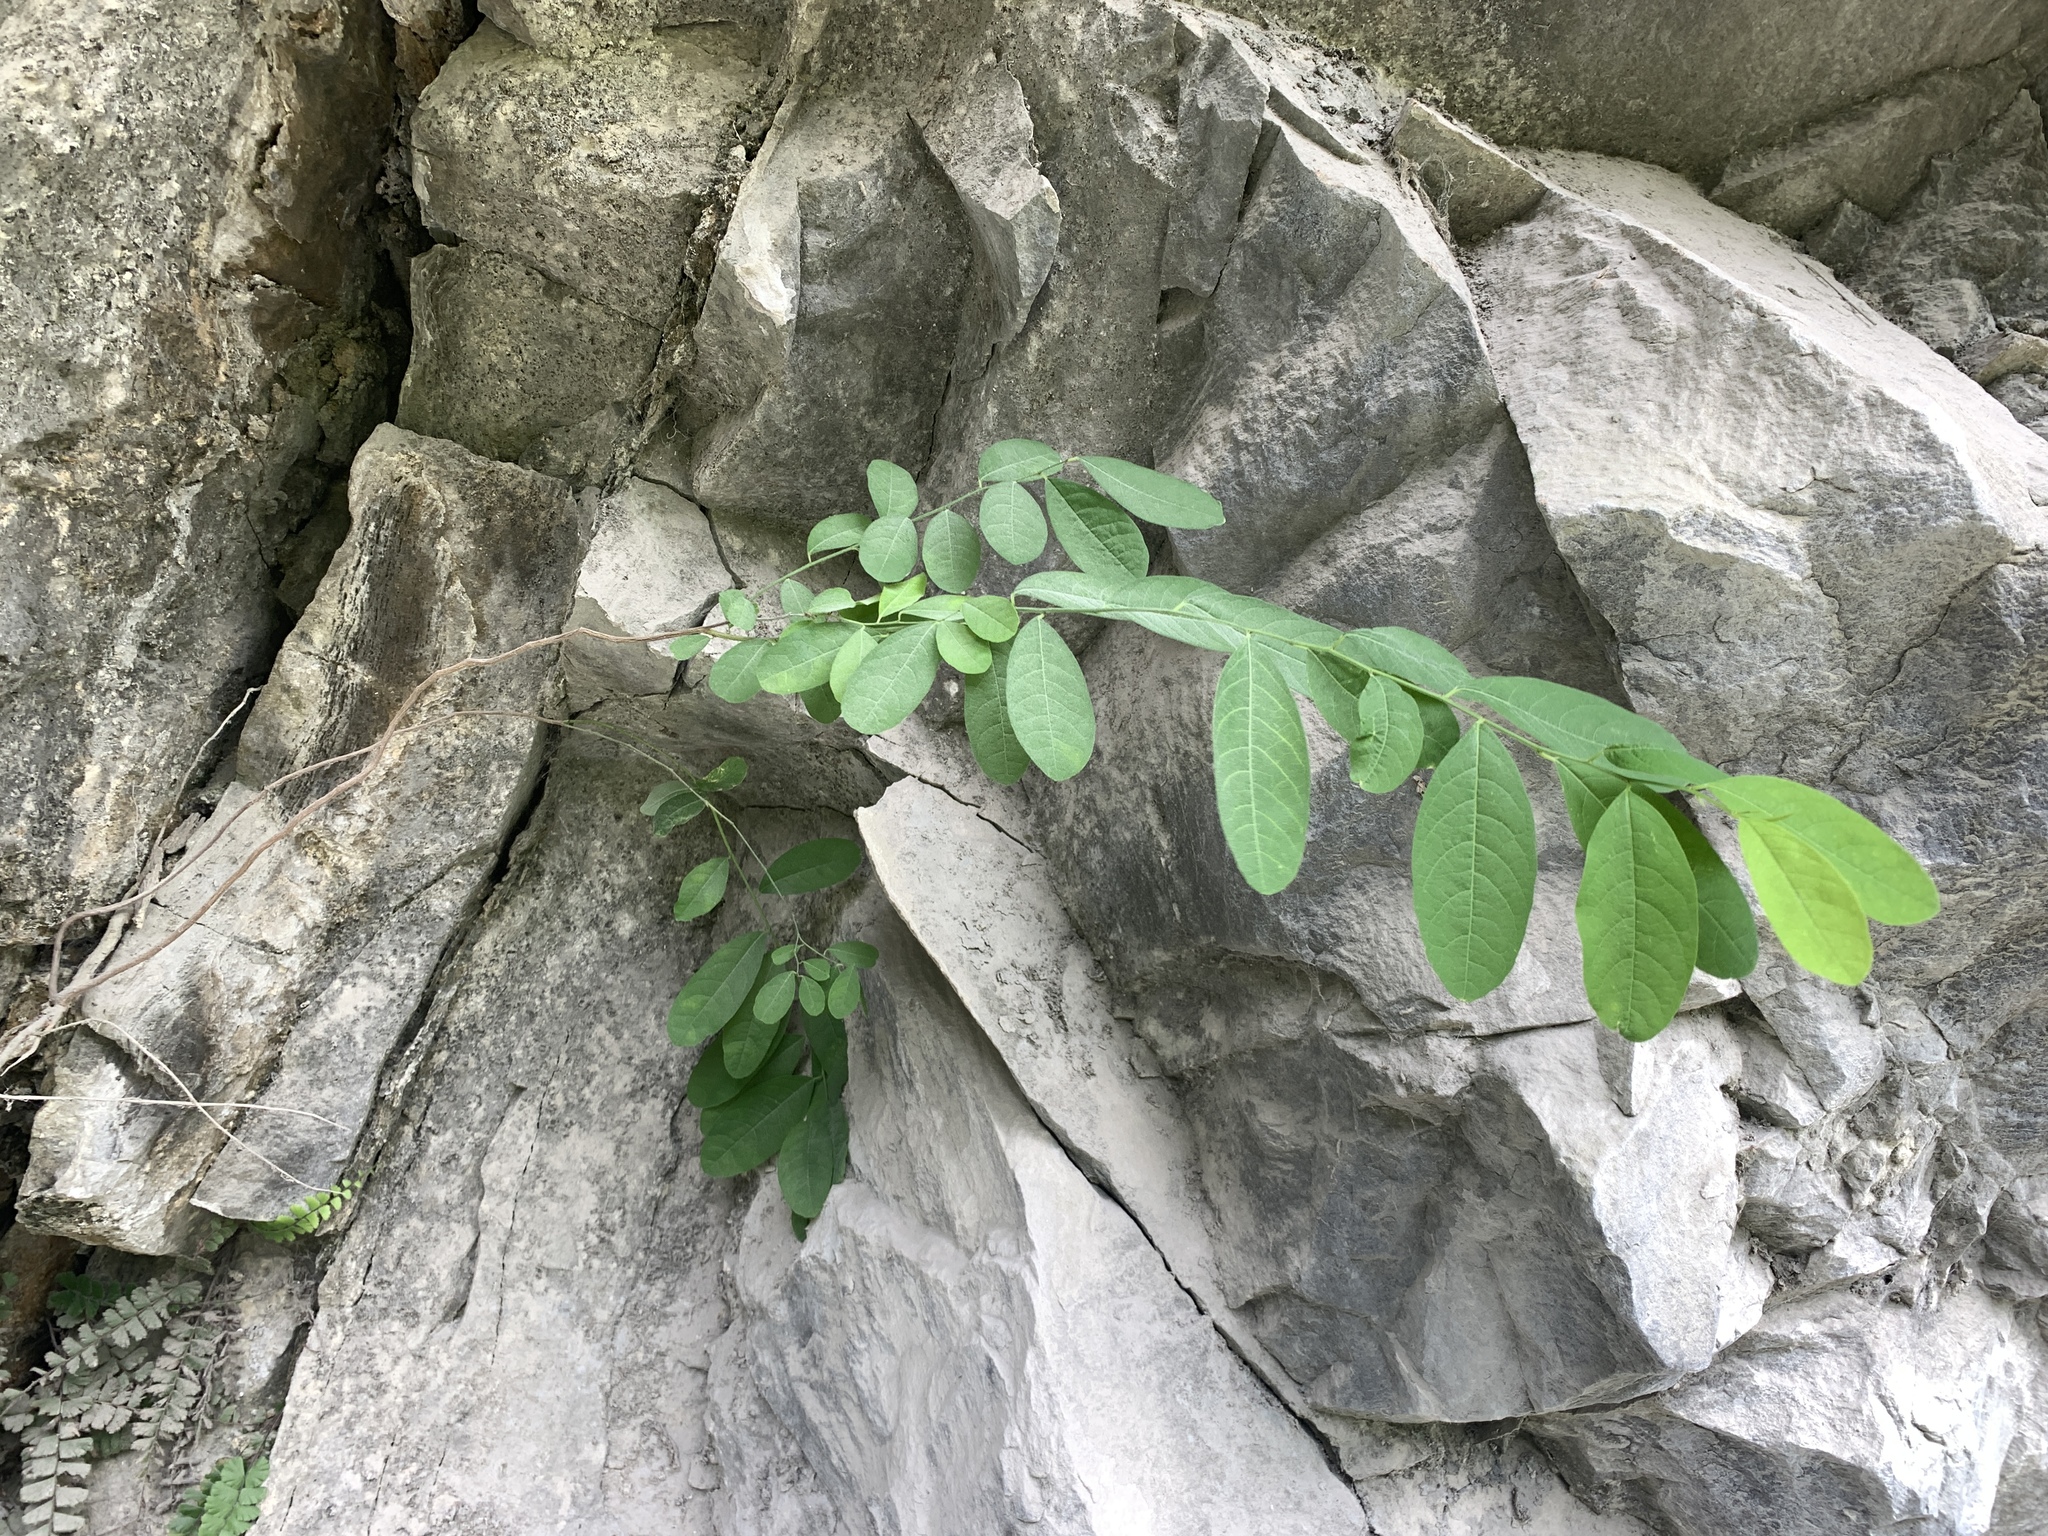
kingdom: Plantae
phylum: Tracheophyta
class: Magnoliopsida
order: Malpighiales
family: Phyllanthaceae
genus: Flueggea
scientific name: Flueggea suffruticosa
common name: Arching bushweed
